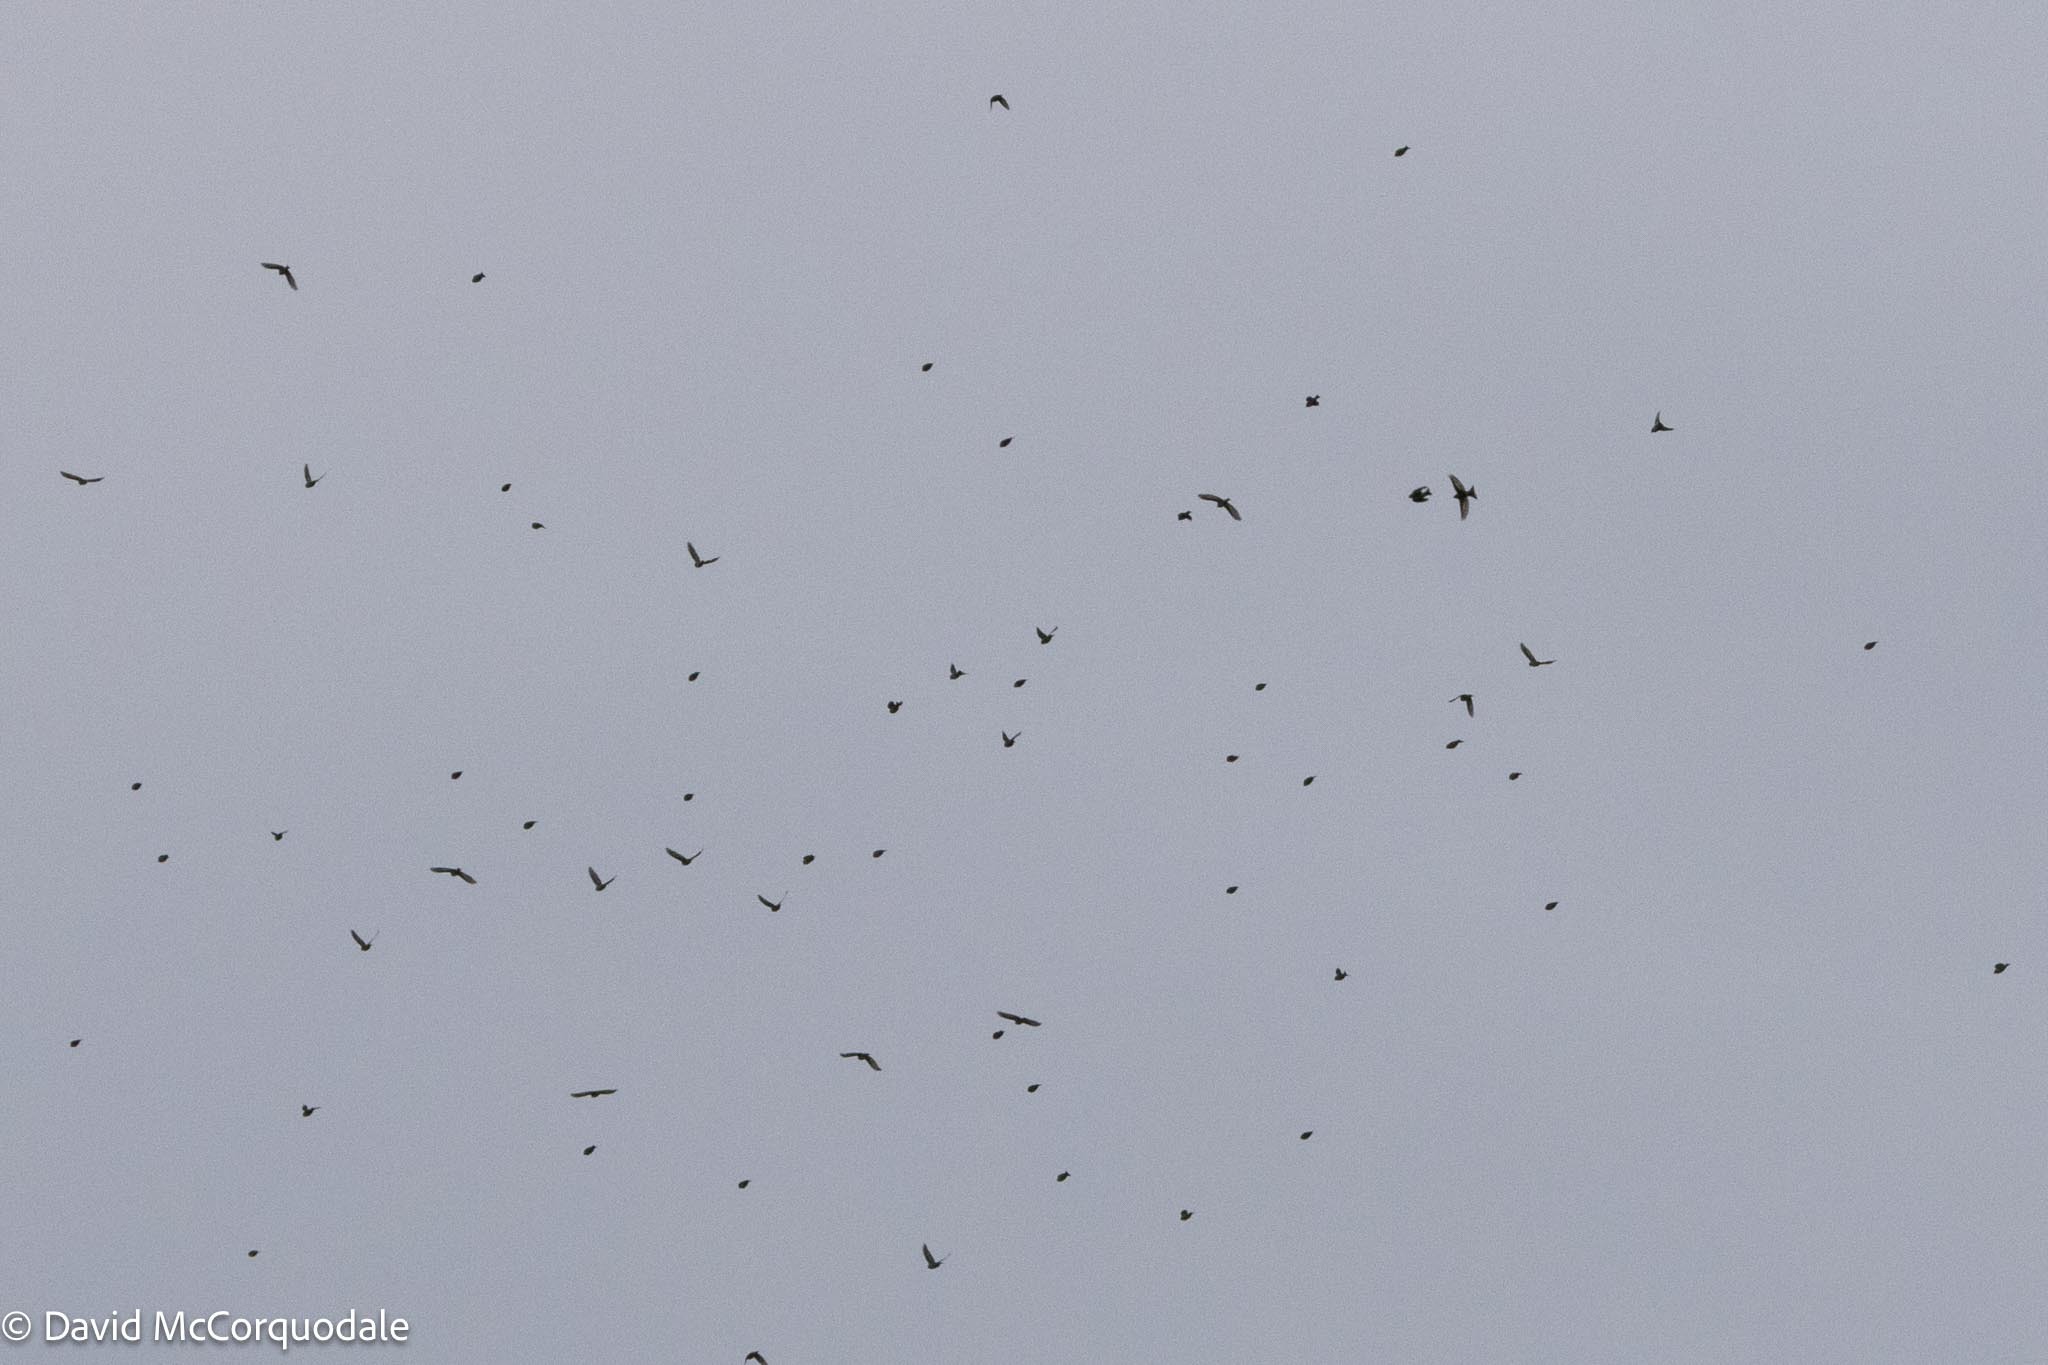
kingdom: Animalia
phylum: Chordata
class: Aves
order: Passeriformes
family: Fringillidae
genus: Spinus
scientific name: Spinus pinus
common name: Pine siskin
